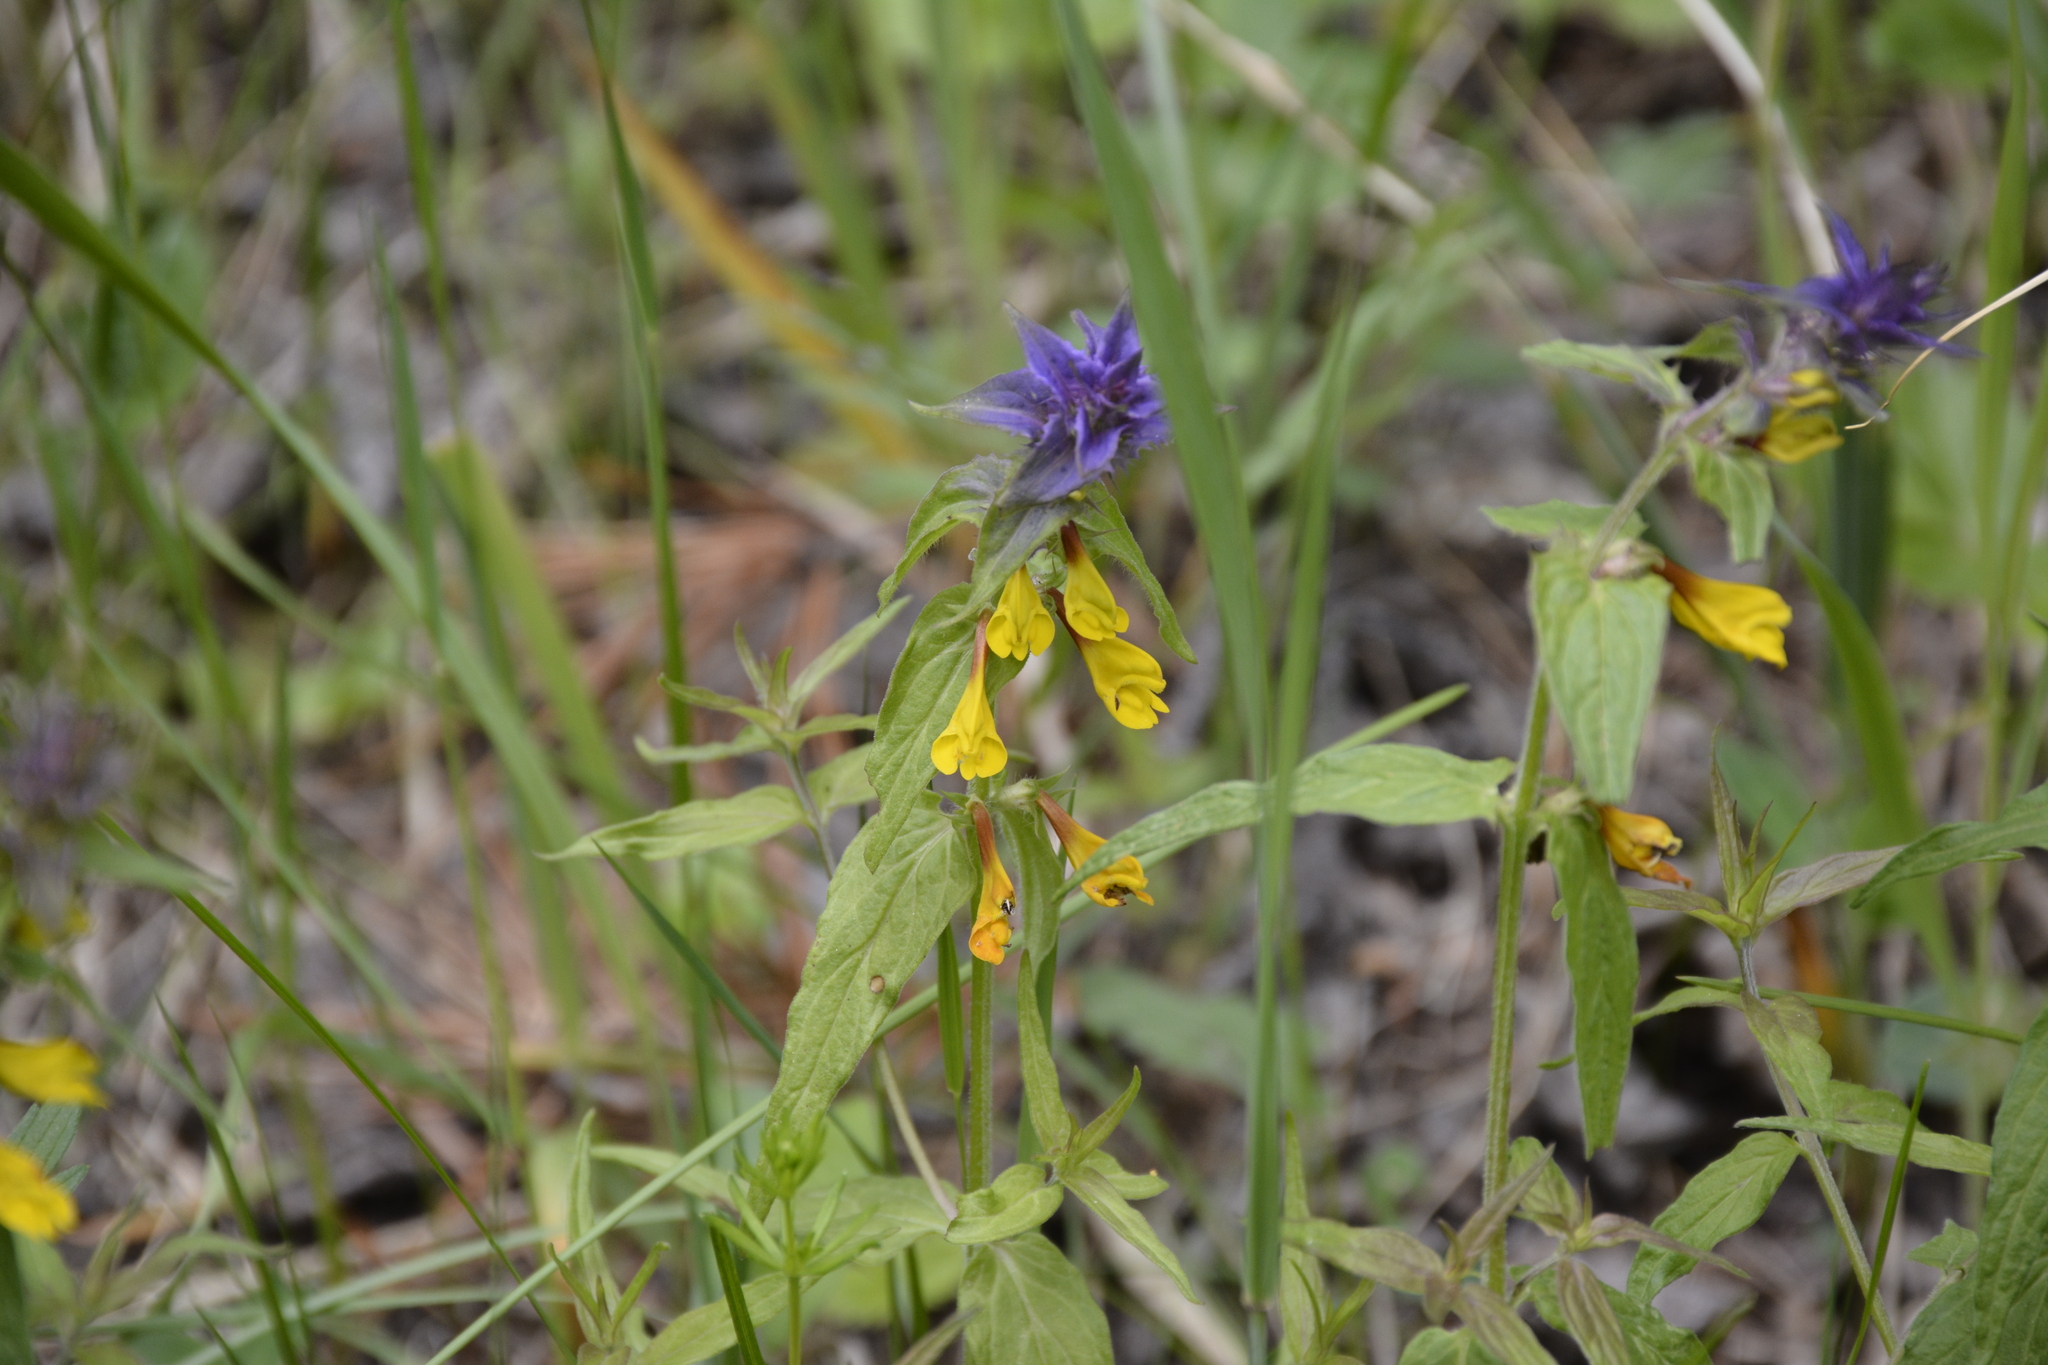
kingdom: Plantae
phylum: Tracheophyta
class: Magnoliopsida
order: Lamiales
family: Orobanchaceae
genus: Melampyrum
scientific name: Melampyrum nemorosum
